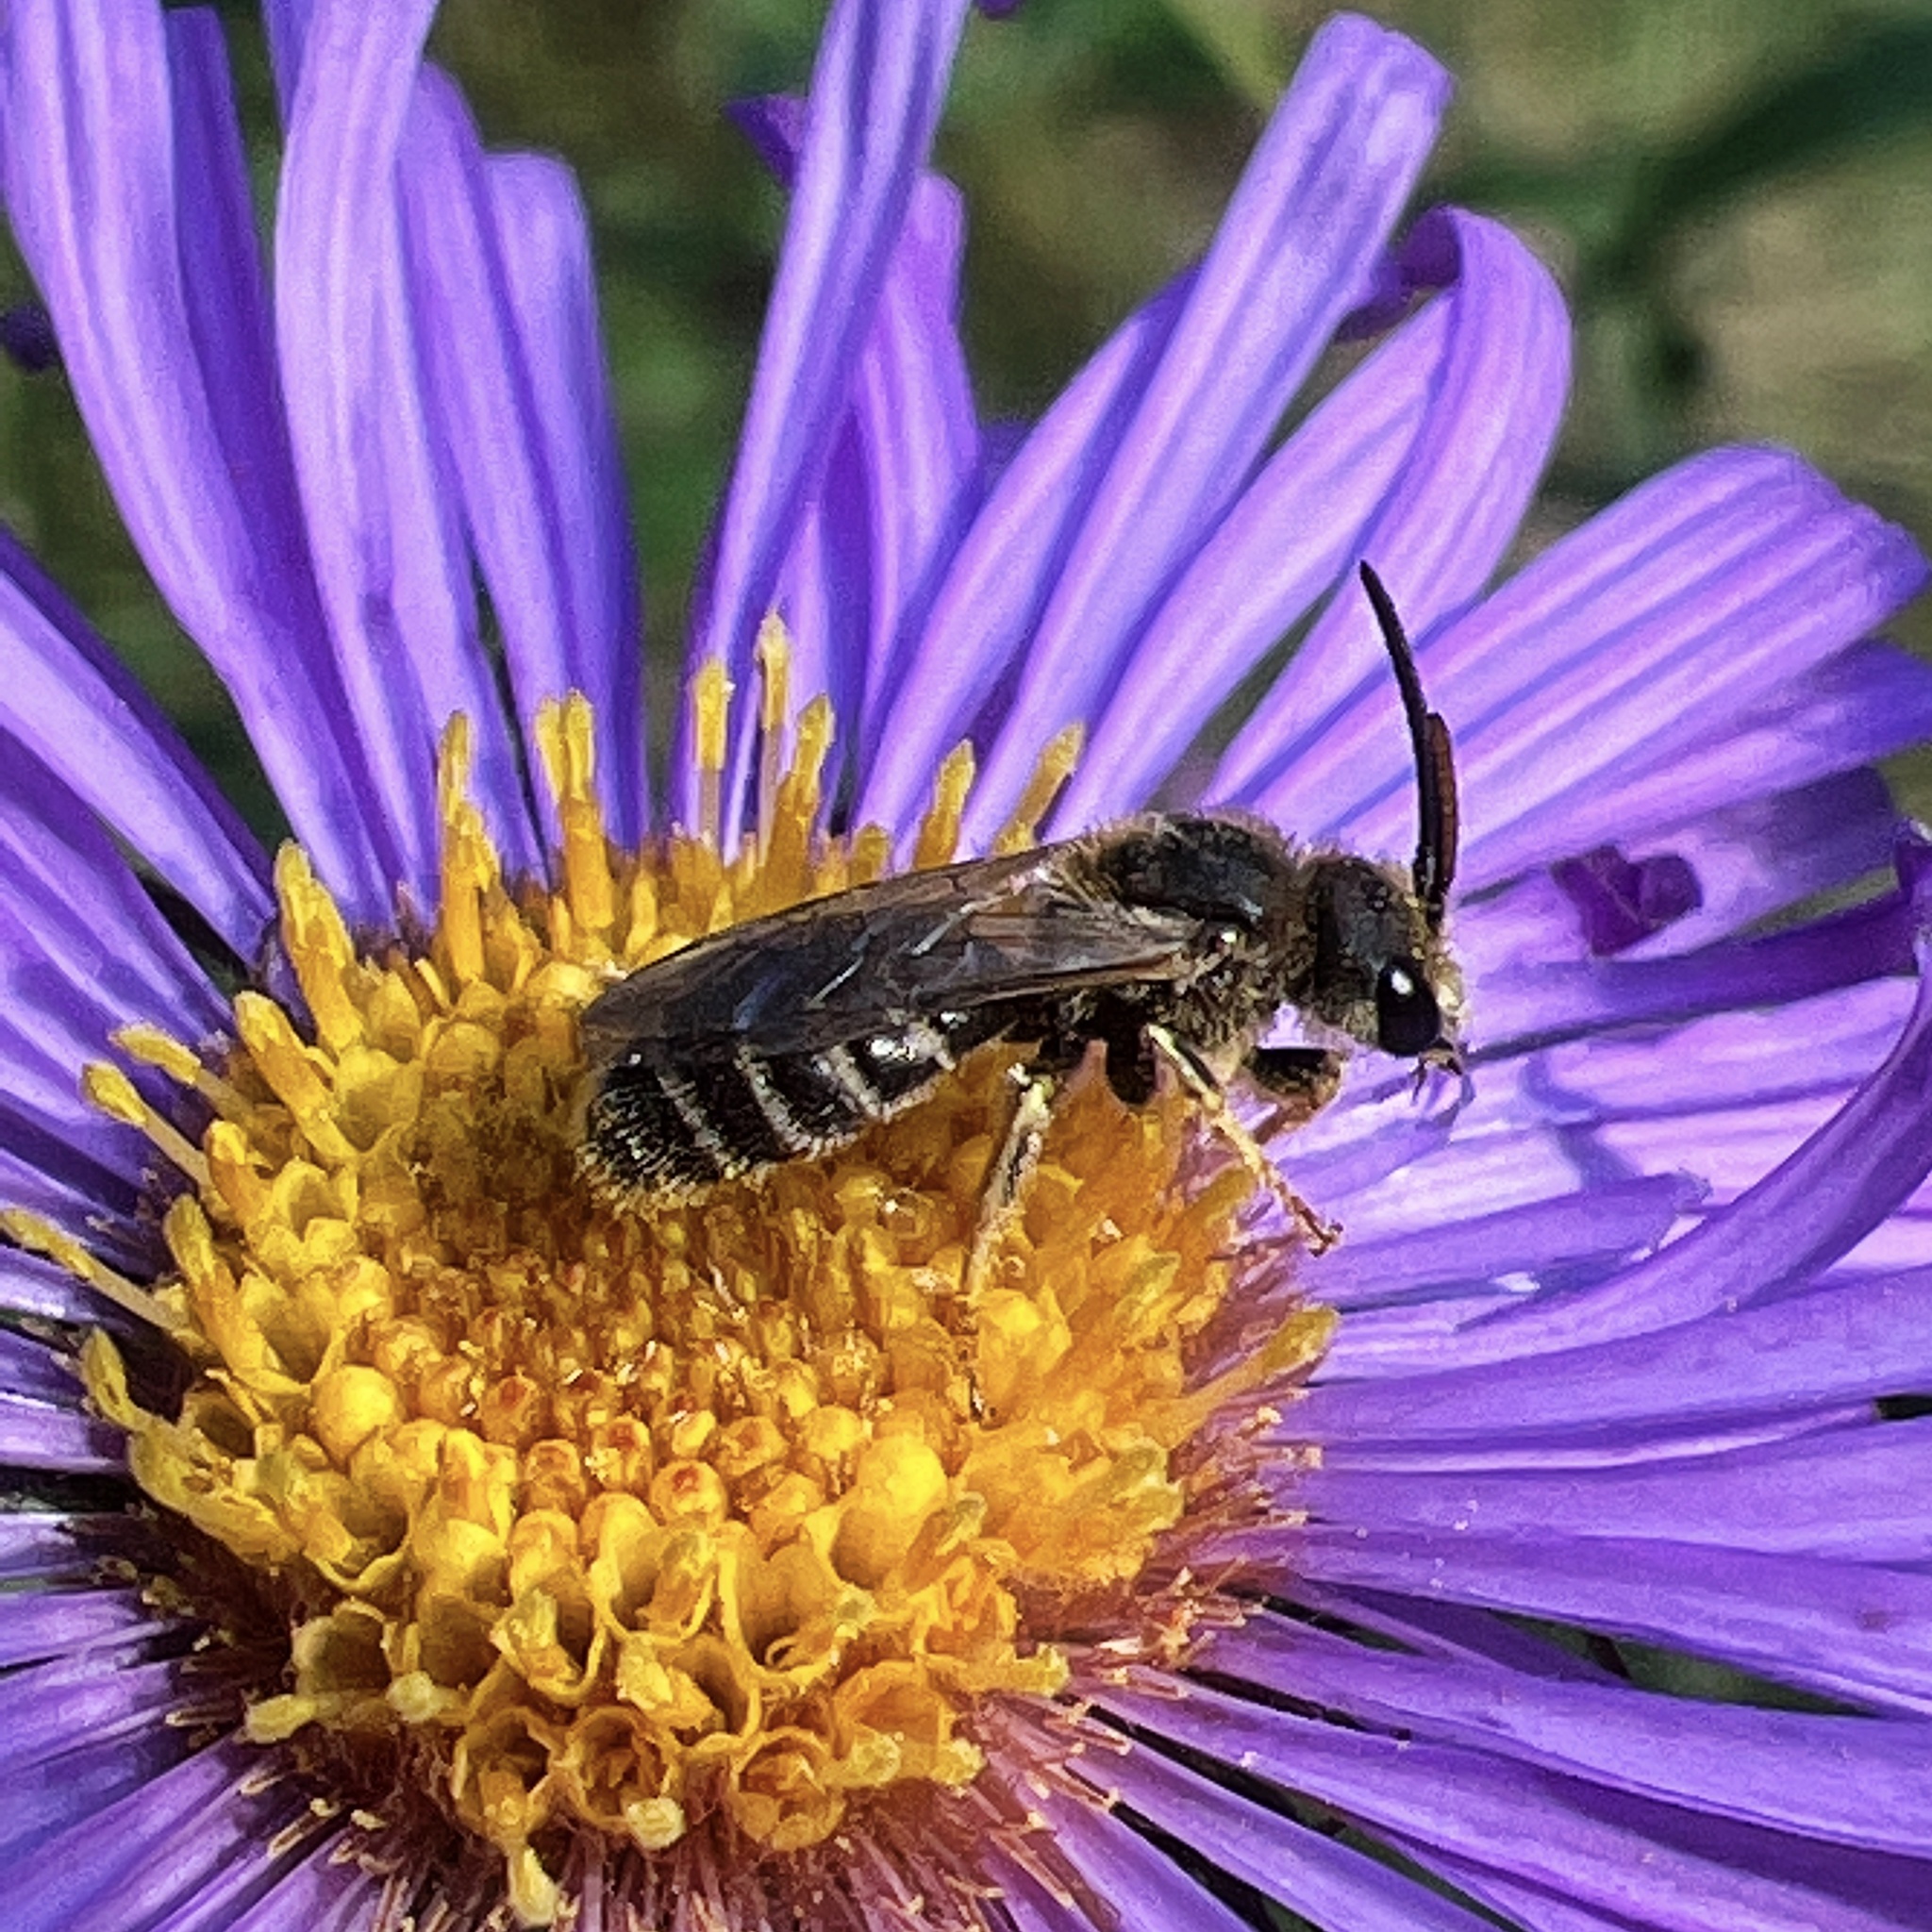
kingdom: Animalia
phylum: Arthropoda
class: Insecta
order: Hymenoptera
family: Halictidae
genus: Halictus
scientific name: Halictus ligatus
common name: Ligated furrow bee
